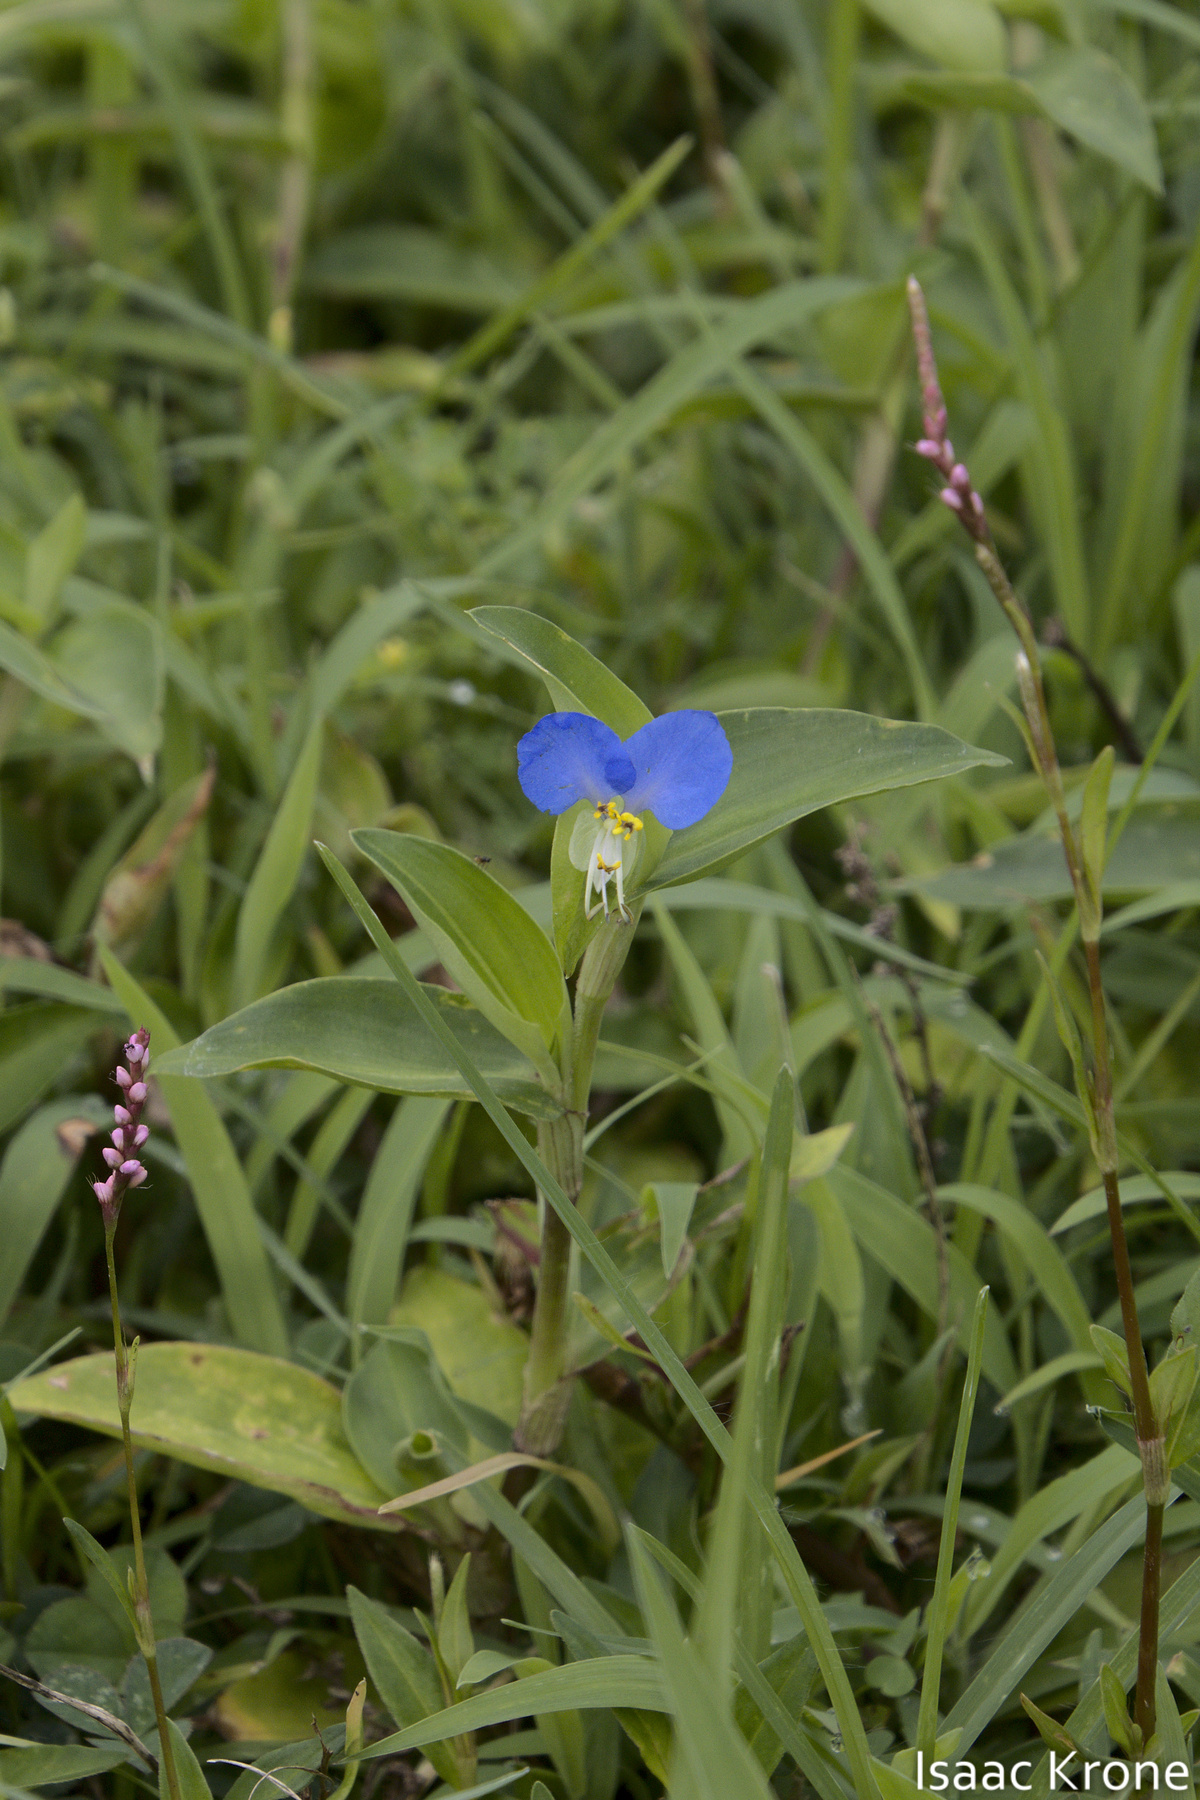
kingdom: Plantae
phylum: Tracheophyta
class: Liliopsida
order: Commelinales
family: Commelinaceae
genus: Commelina
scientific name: Commelina communis
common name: Asiatic dayflower
